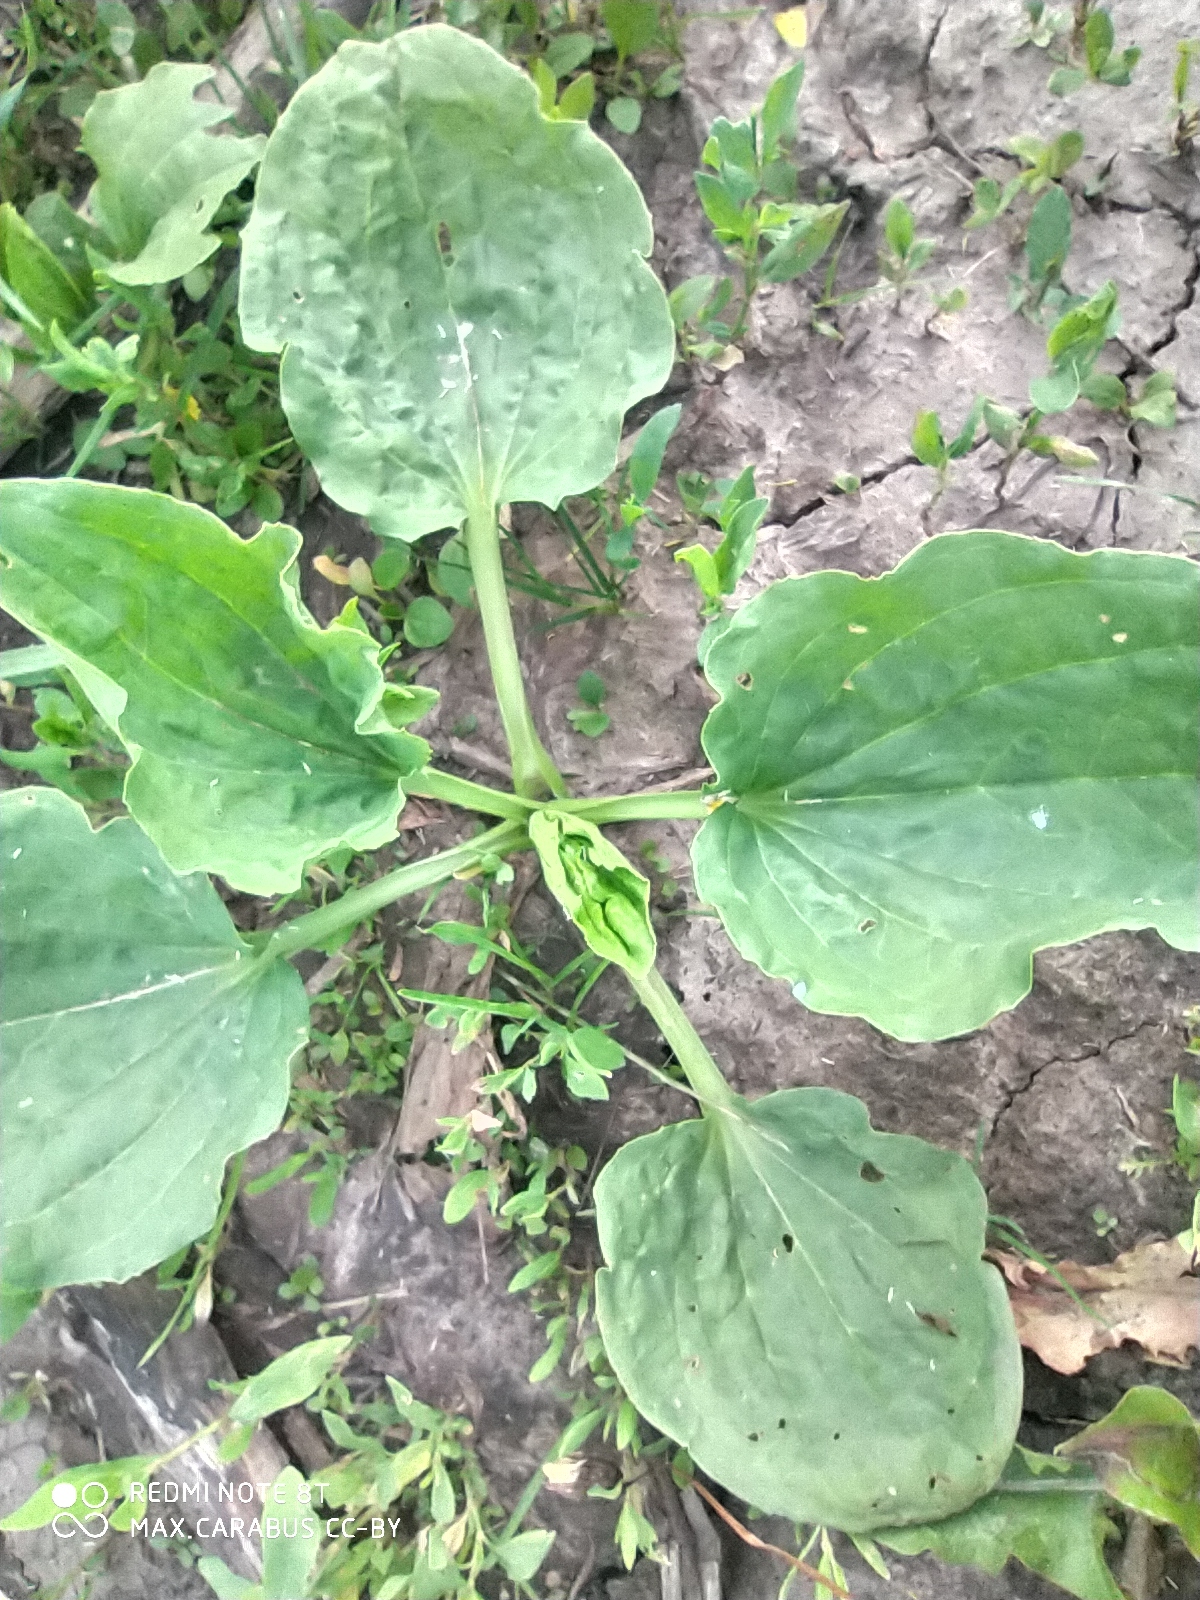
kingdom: Plantae
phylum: Tracheophyta
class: Magnoliopsida
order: Lamiales
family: Plantaginaceae
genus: Plantago
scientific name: Plantago major
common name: Common plantain
